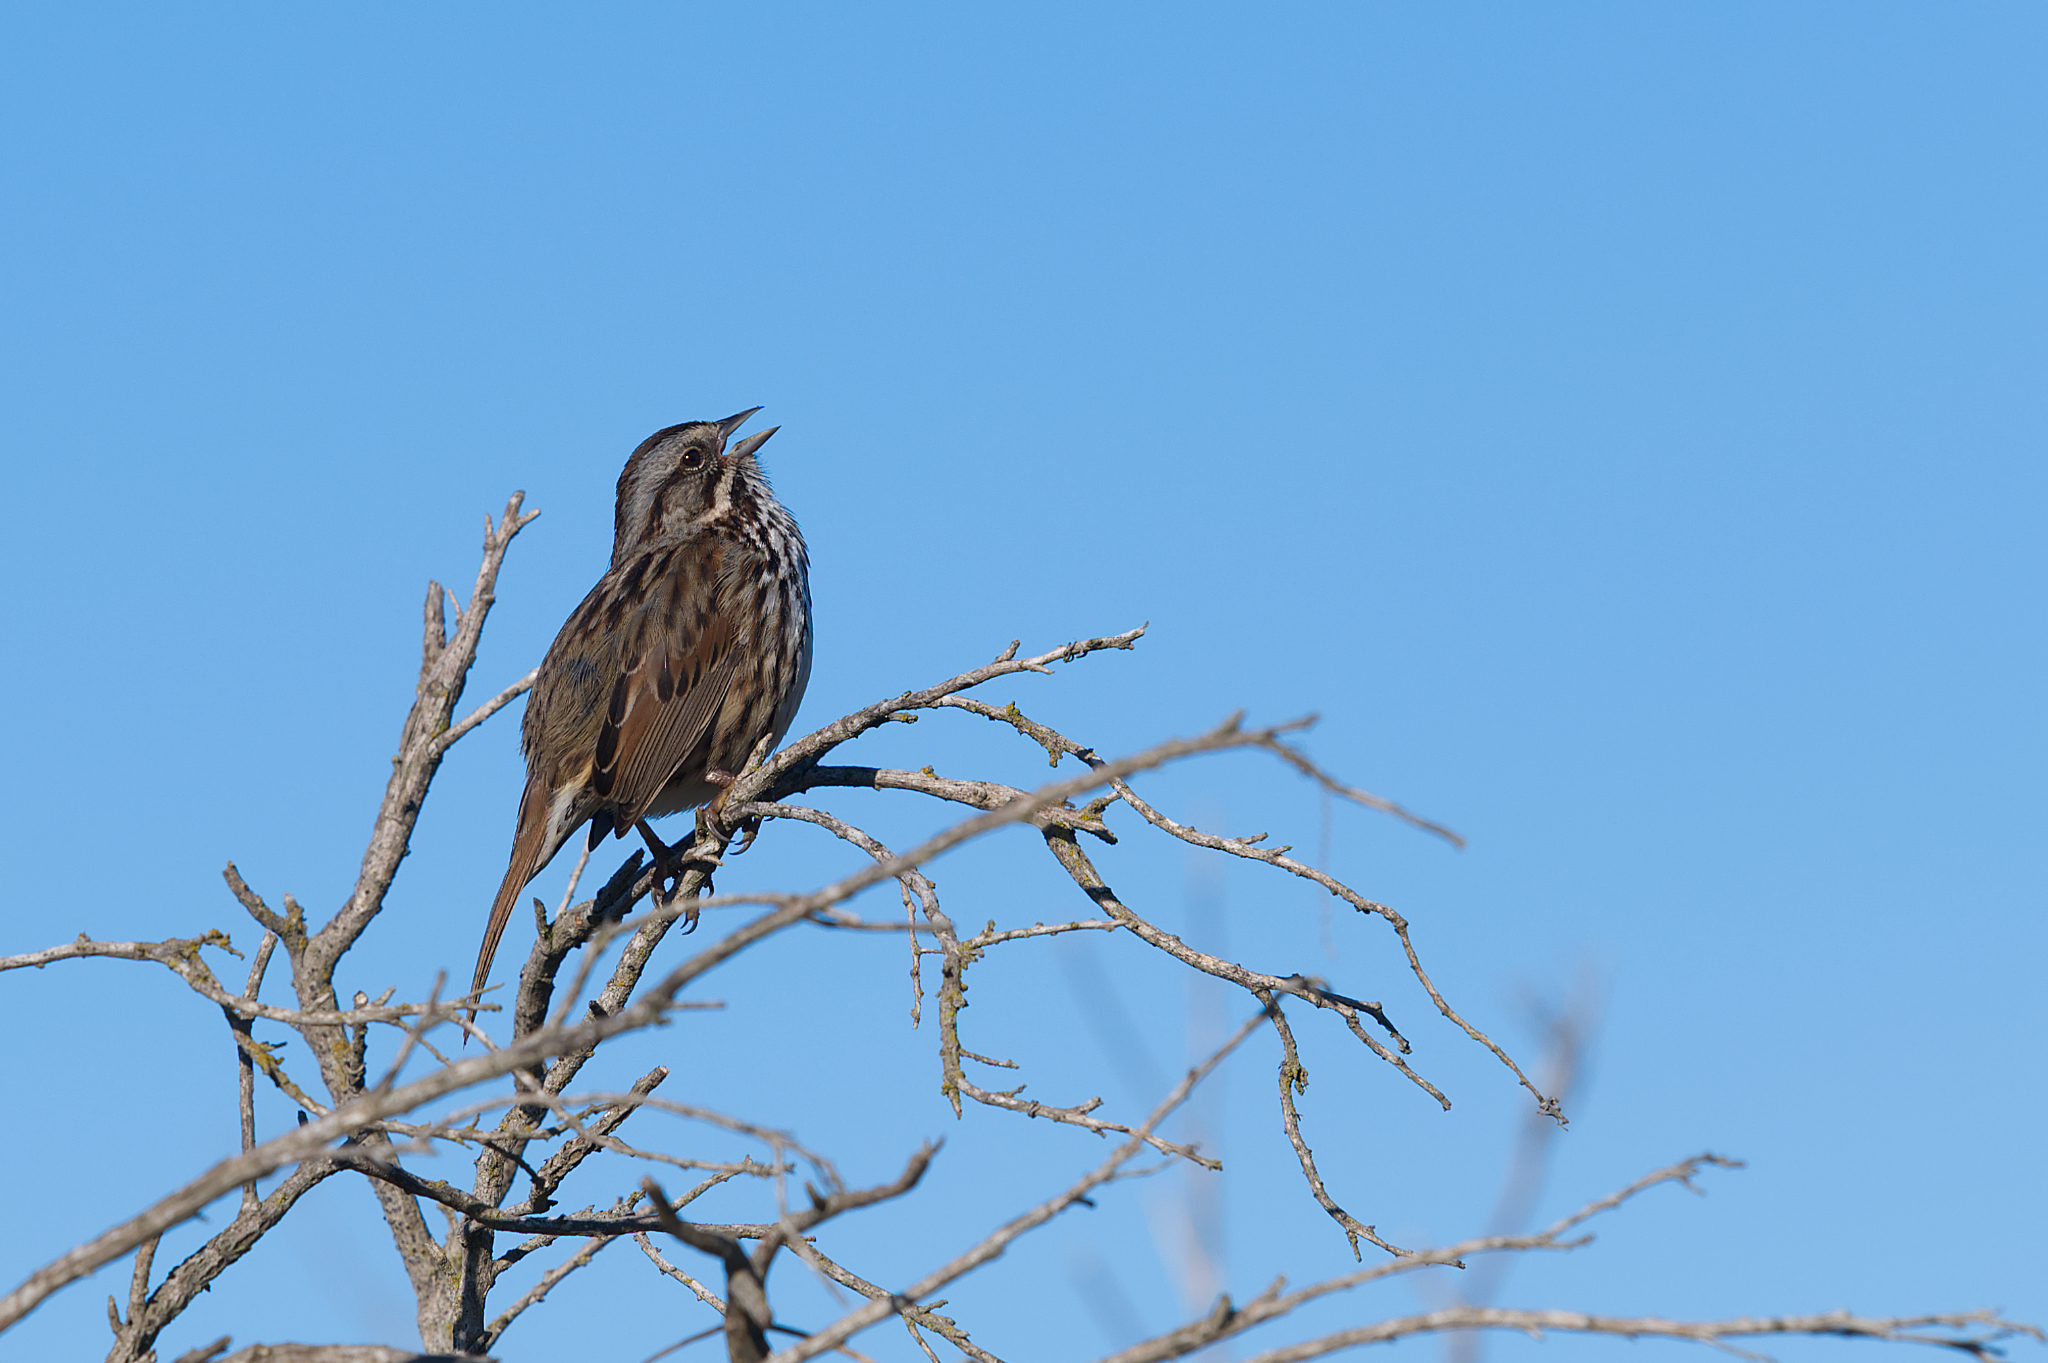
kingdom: Animalia
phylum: Chordata
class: Aves
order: Passeriformes
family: Passerellidae
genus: Melospiza
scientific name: Melospiza melodia
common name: Song sparrow
